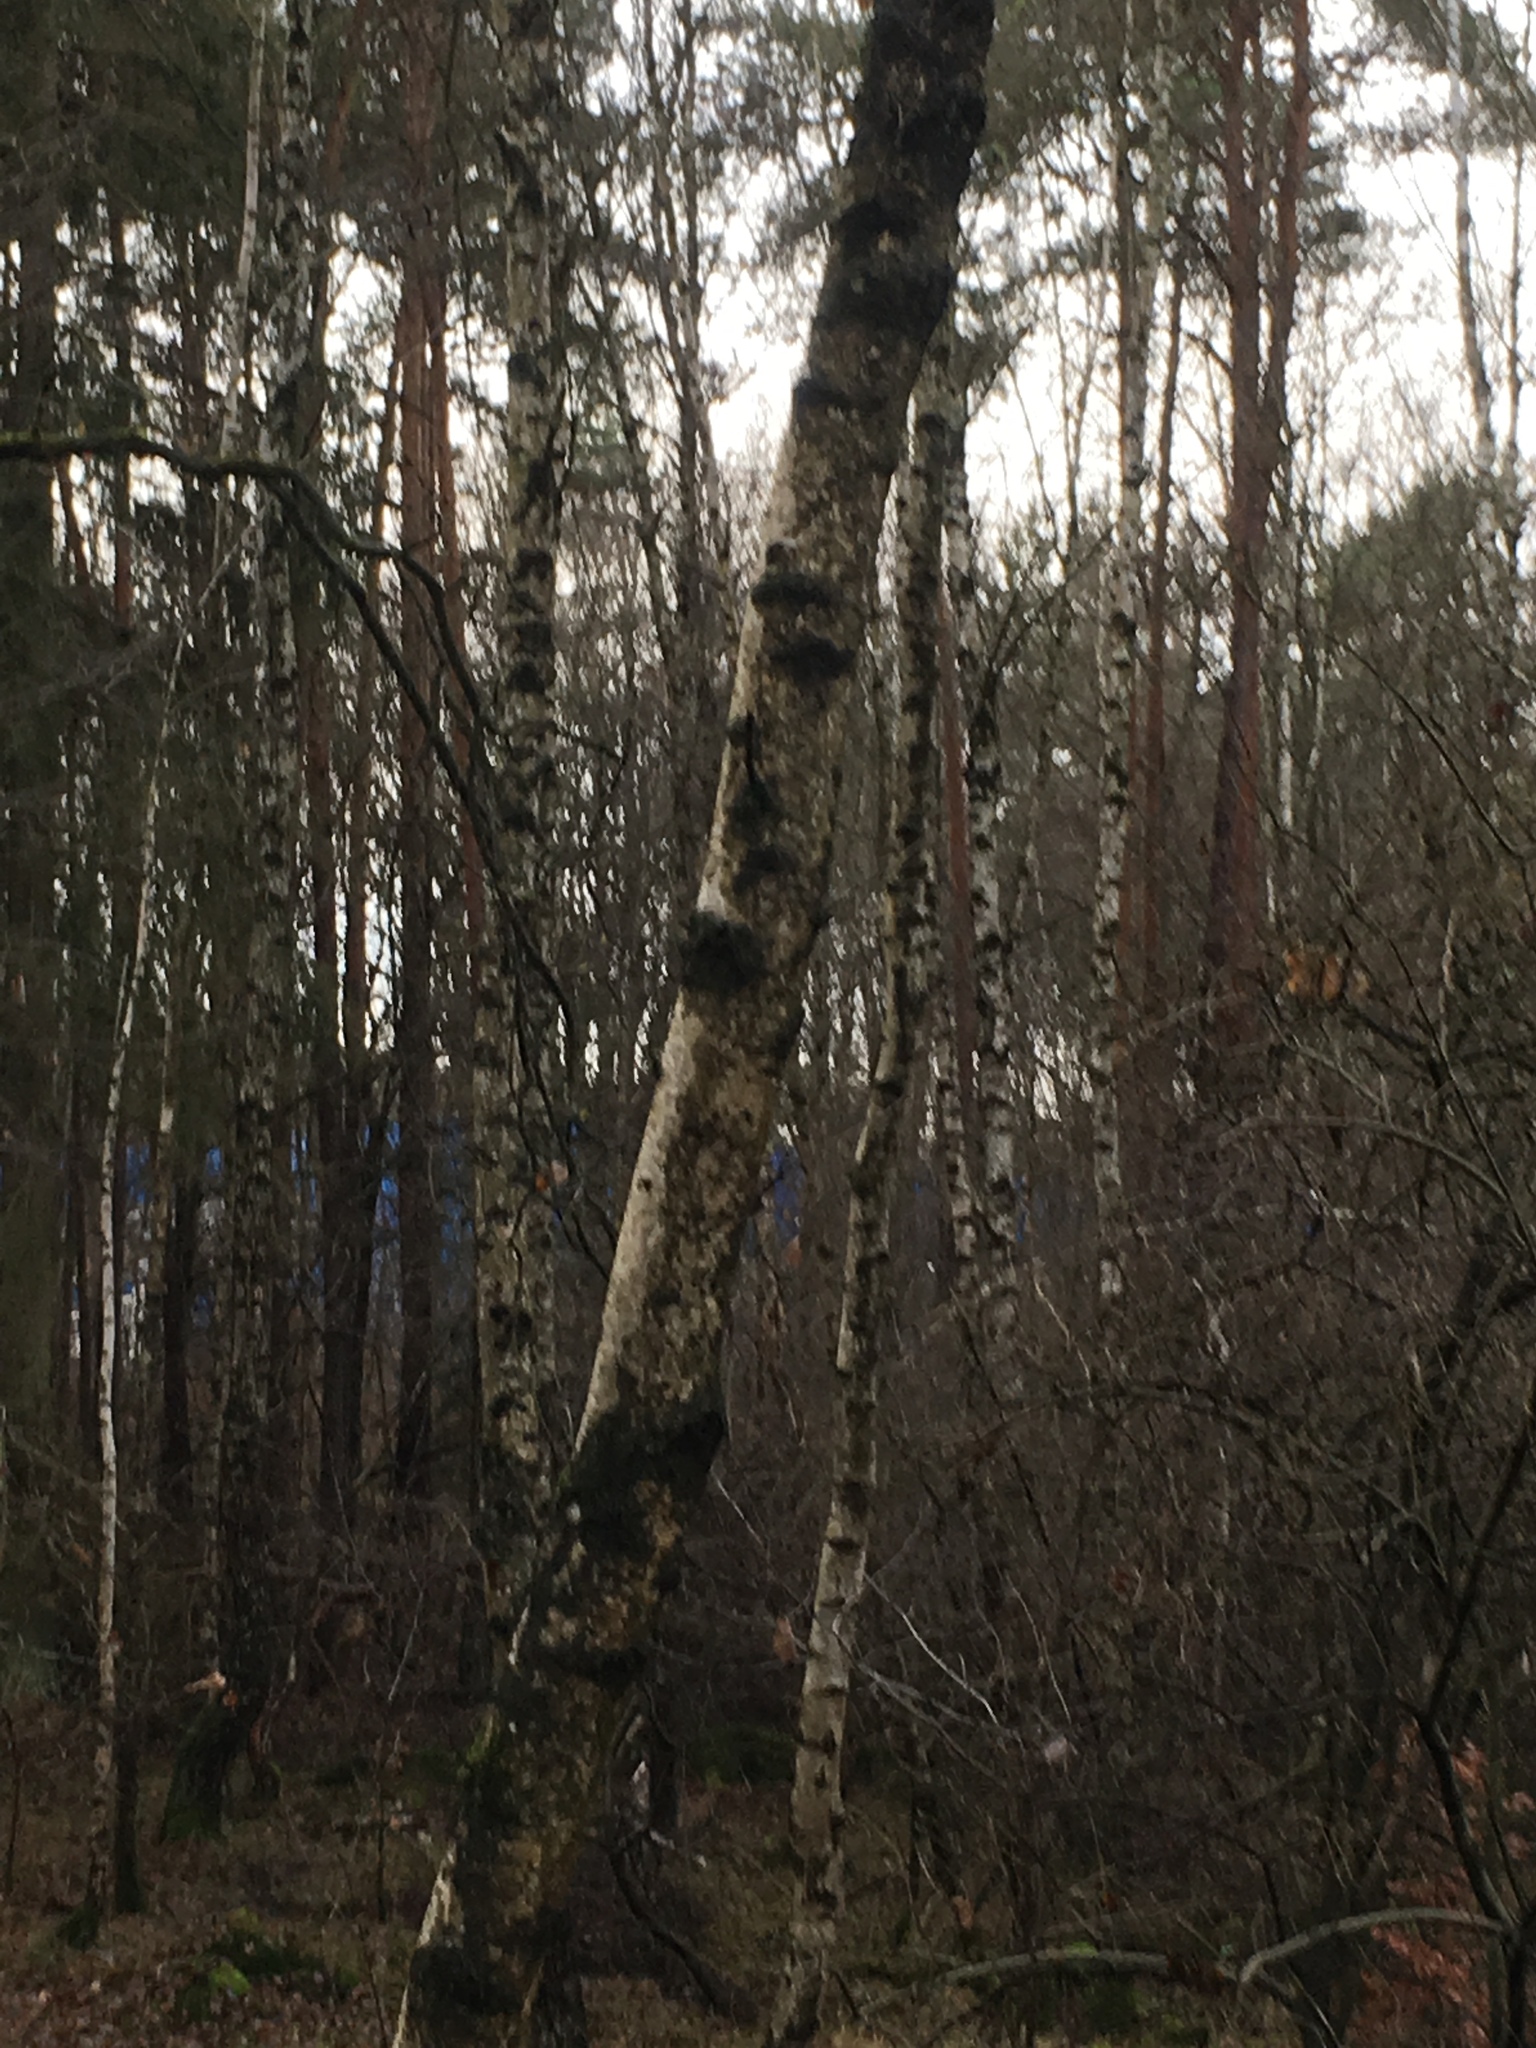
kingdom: Plantae
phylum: Tracheophyta
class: Magnoliopsida
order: Fagales
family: Betulaceae
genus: Betula
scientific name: Betula pendula
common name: Silver birch
